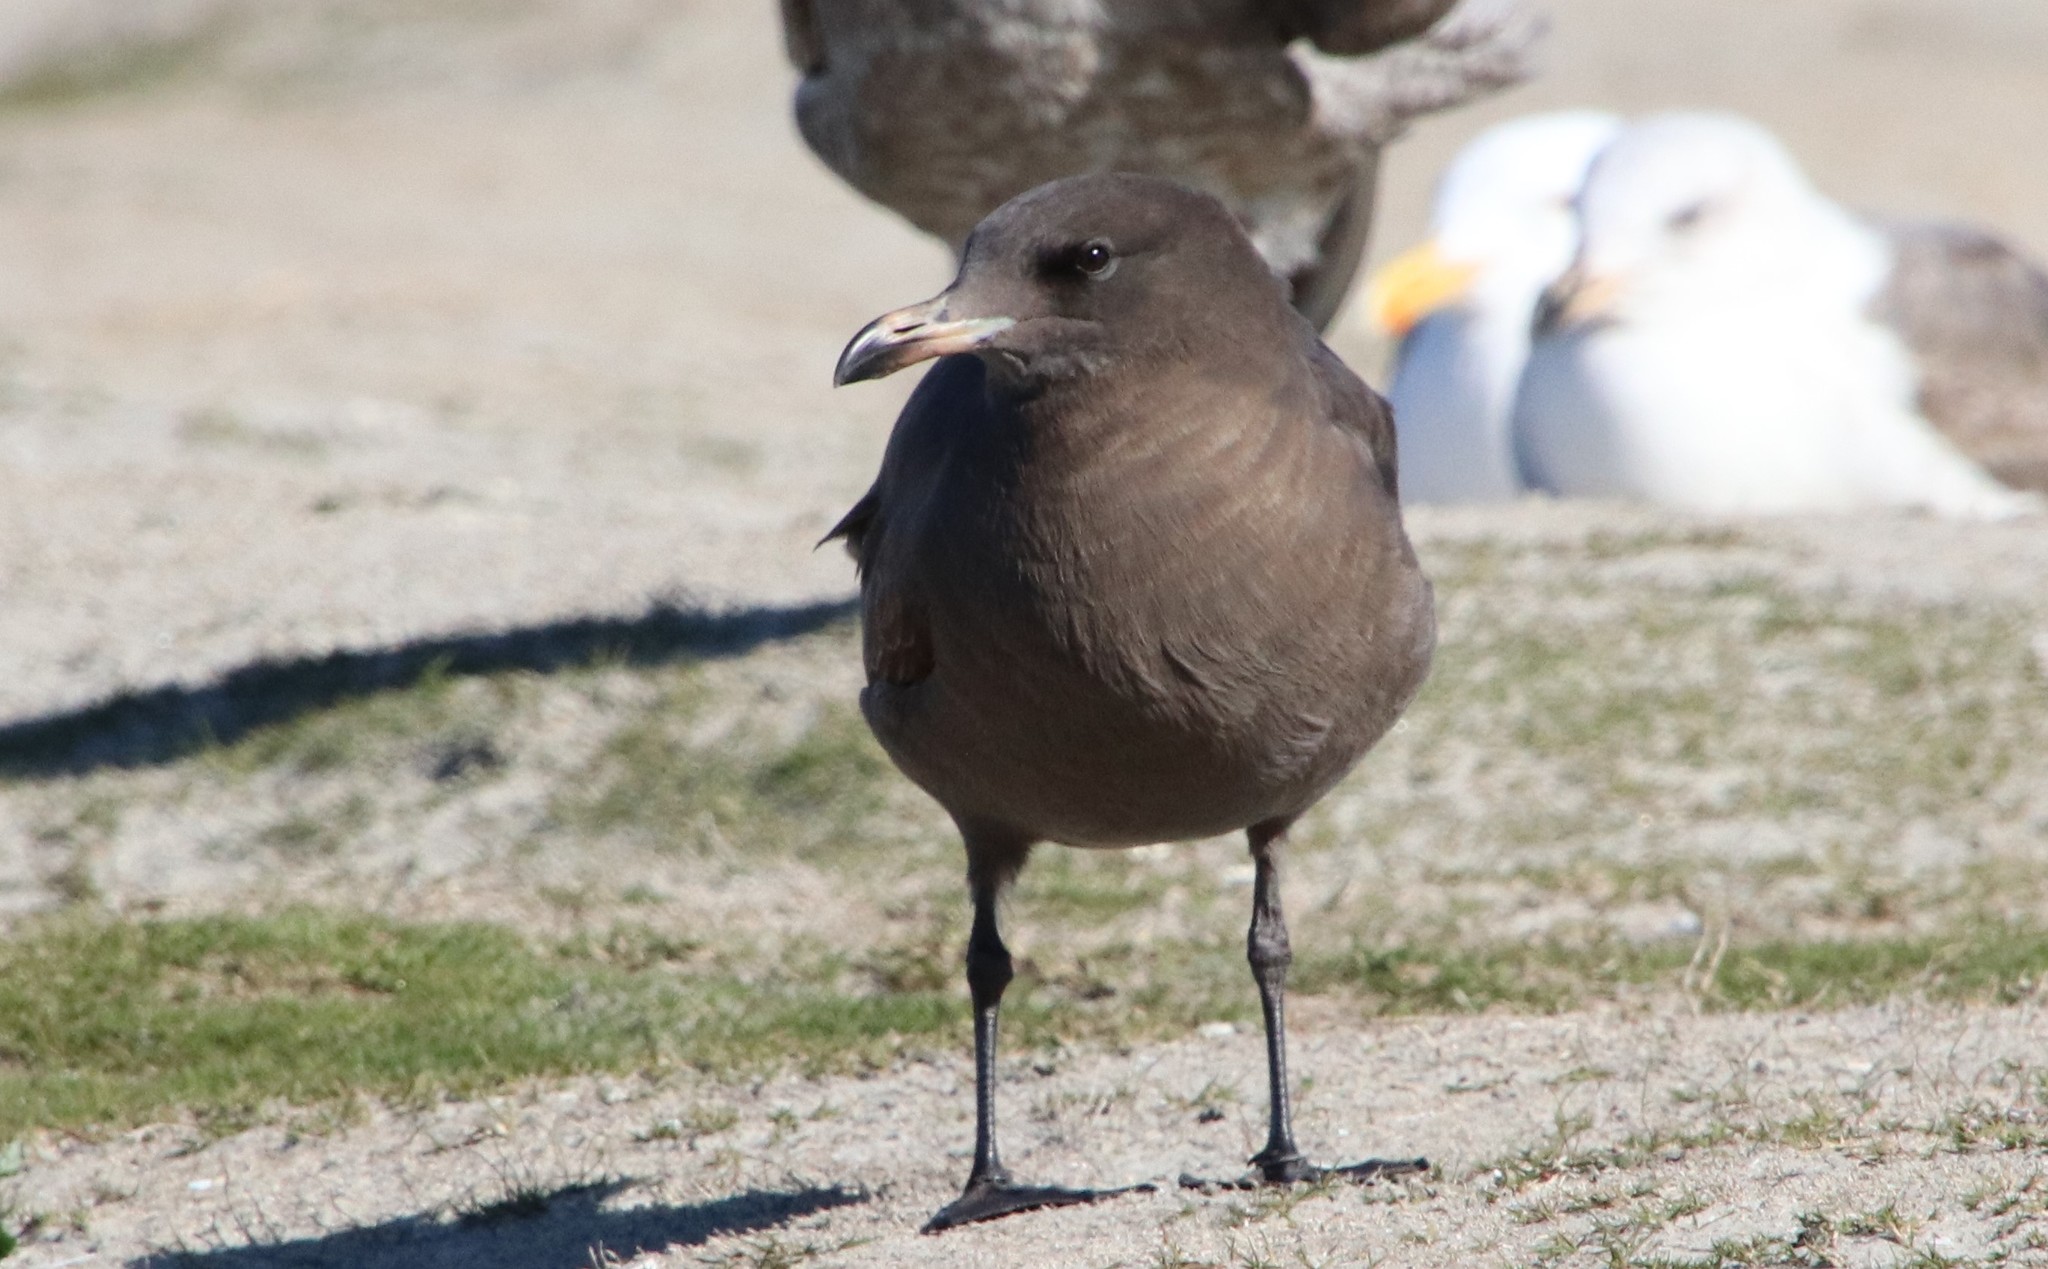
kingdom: Animalia
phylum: Chordata
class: Aves
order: Charadriiformes
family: Laridae
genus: Larus
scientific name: Larus heermanni
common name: Heermann's gull
